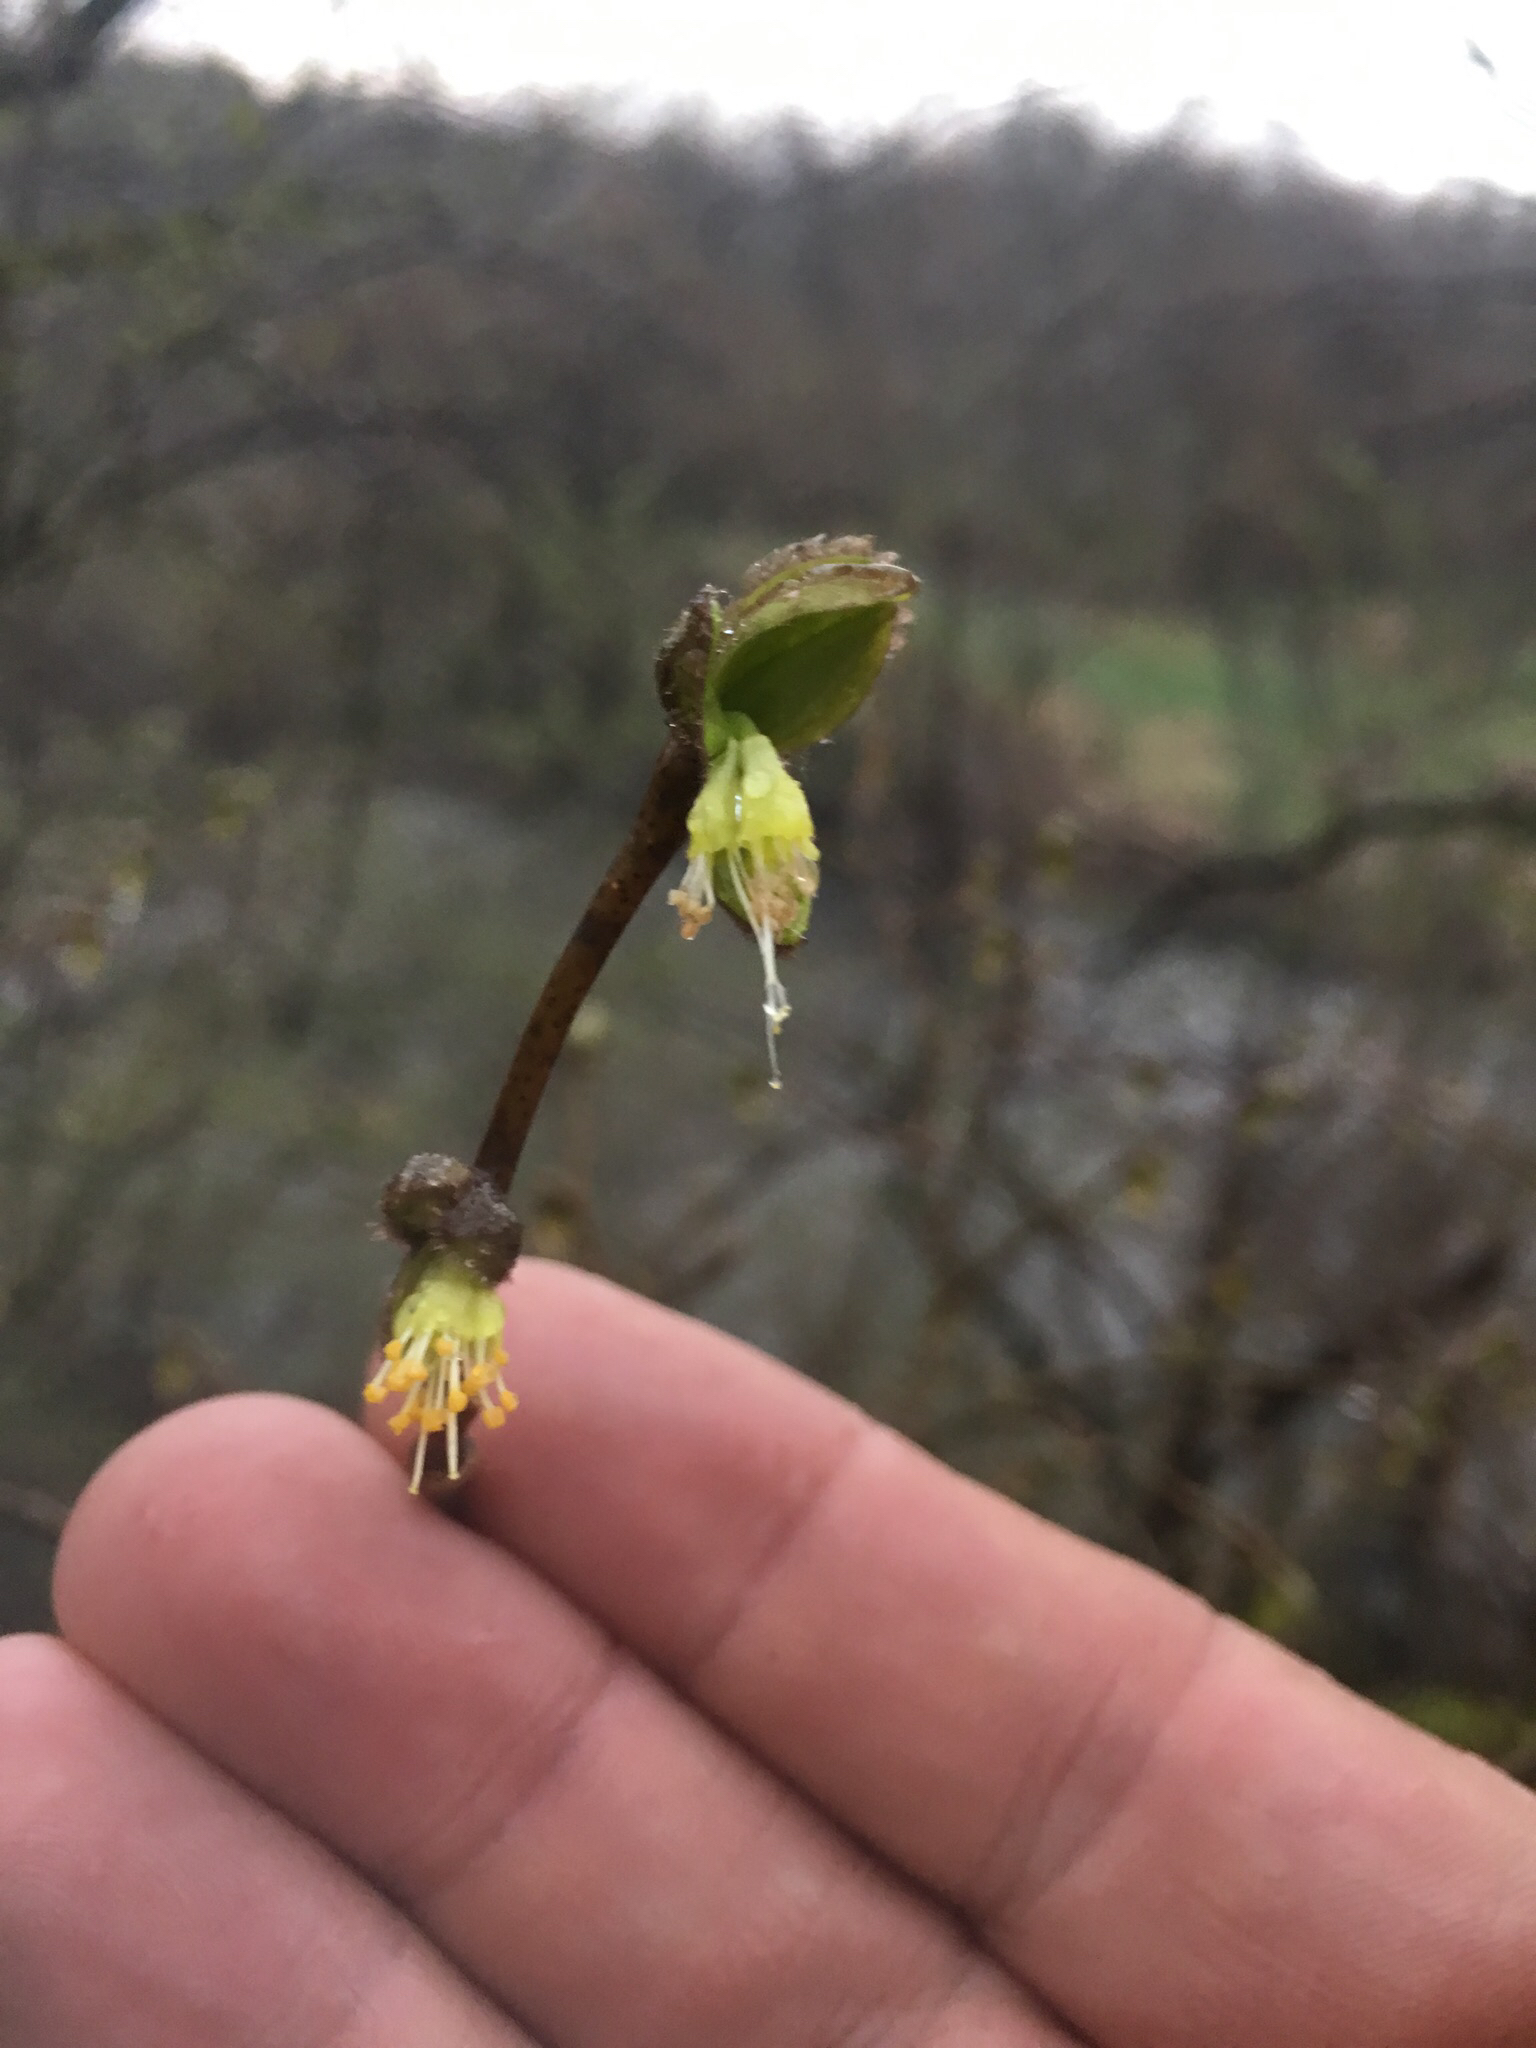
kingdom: Plantae
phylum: Tracheophyta
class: Magnoliopsida
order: Malvales
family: Thymelaeaceae
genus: Dirca
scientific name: Dirca palustris
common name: Leatherwood
